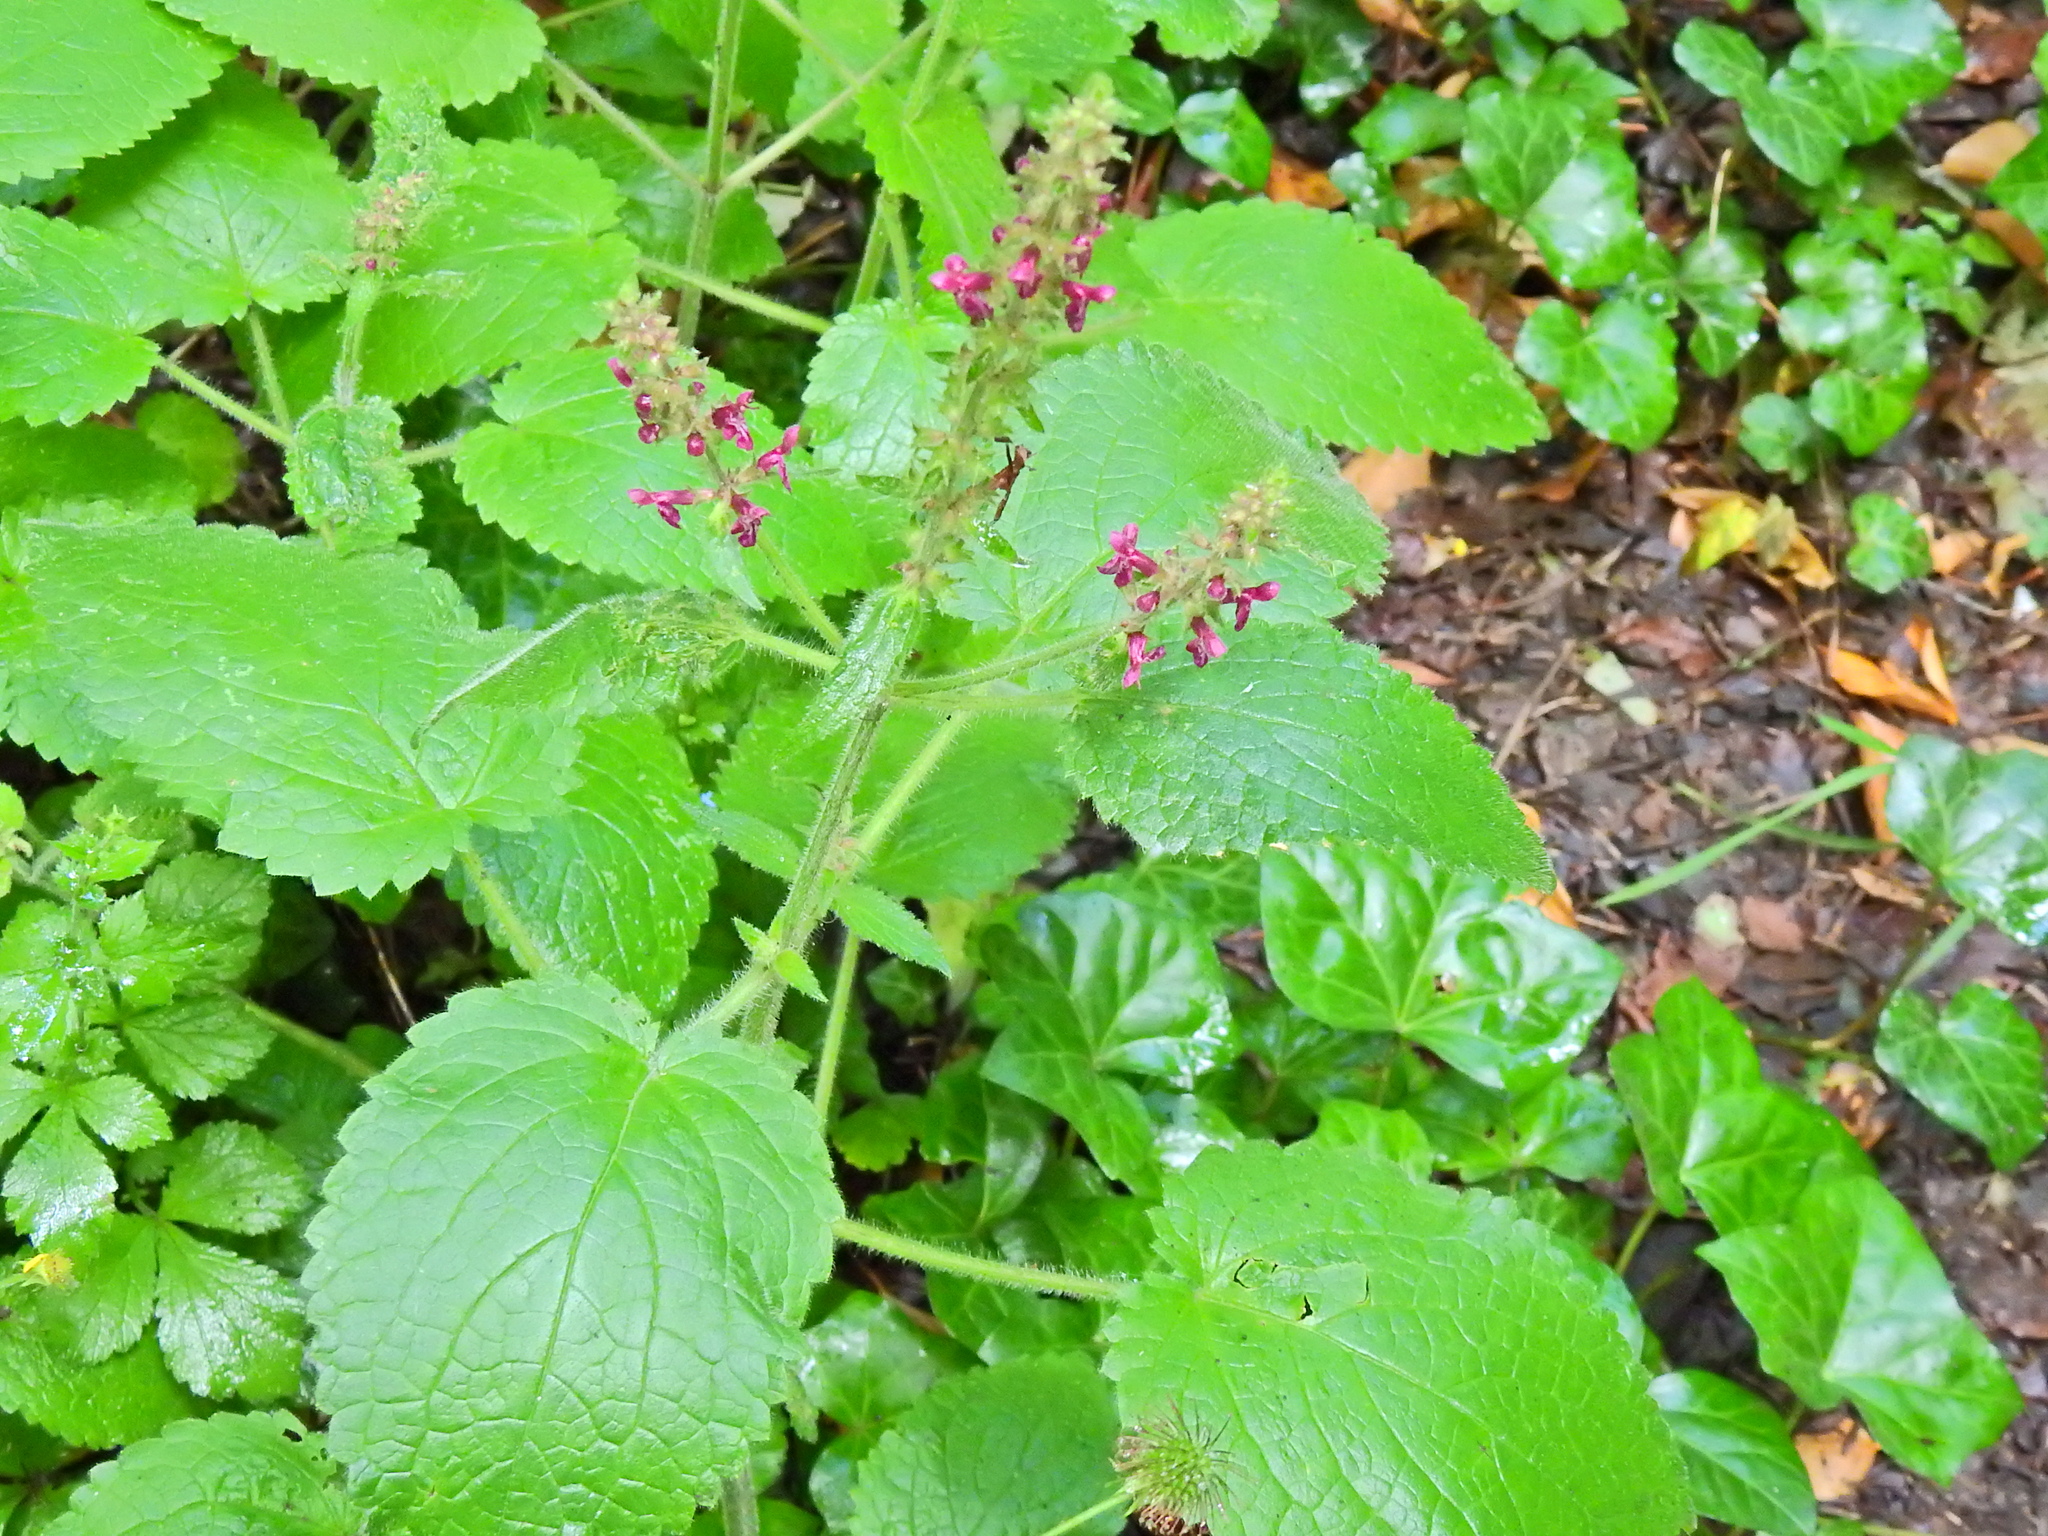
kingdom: Plantae
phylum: Tracheophyta
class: Magnoliopsida
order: Lamiales
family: Lamiaceae
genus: Stachys
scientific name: Stachys sylvatica
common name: Hedge woundwort
